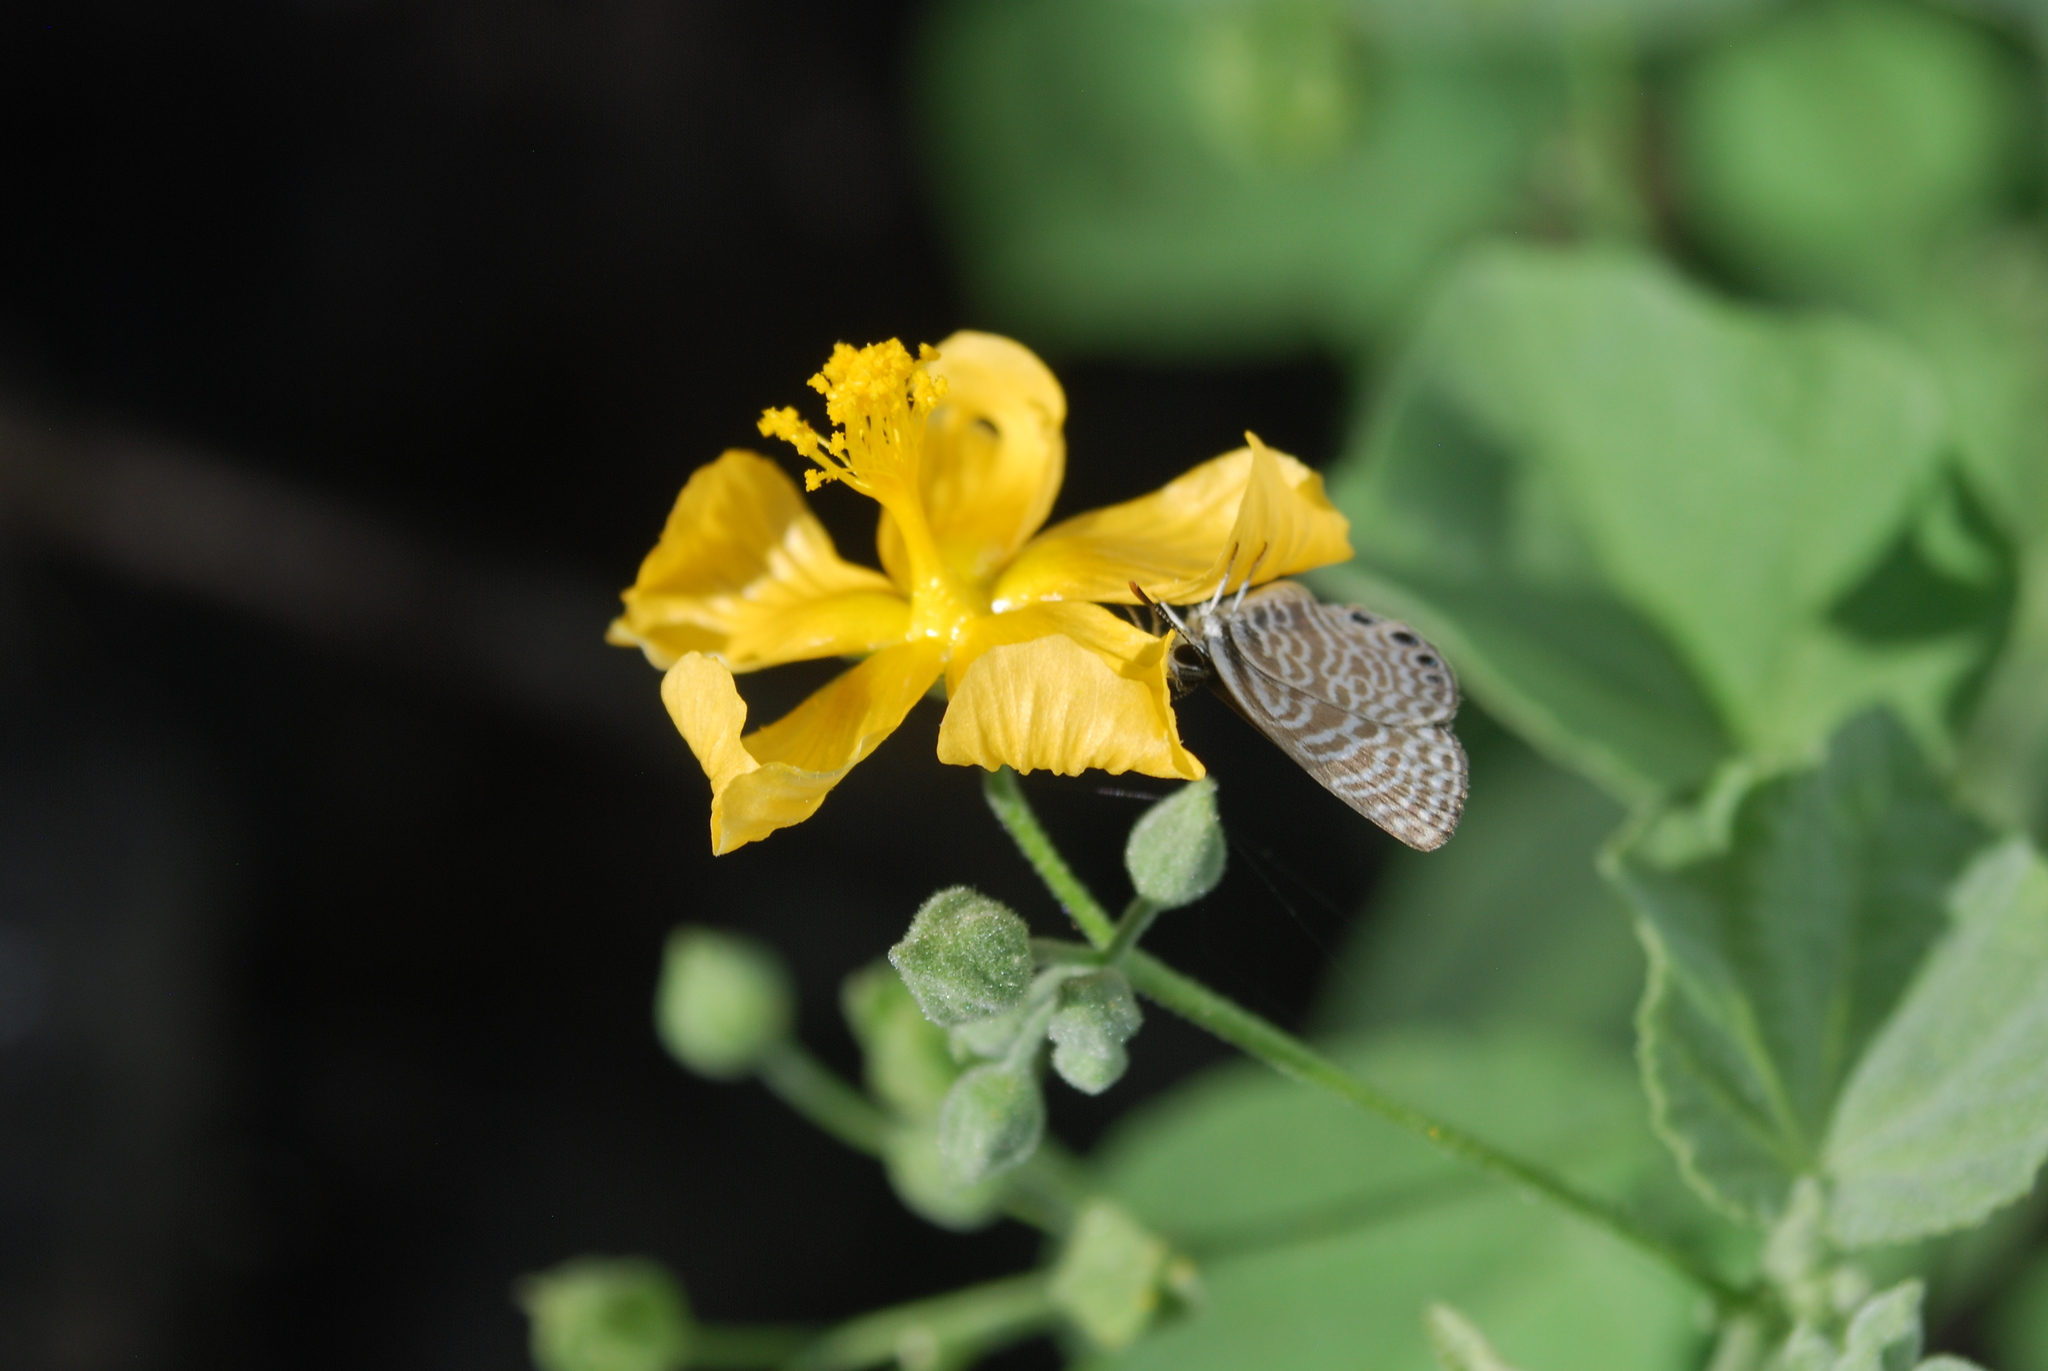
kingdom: Animalia
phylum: Arthropoda
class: Insecta
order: Lepidoptera
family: Lycaenidae
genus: Leptotes
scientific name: Leptotes
